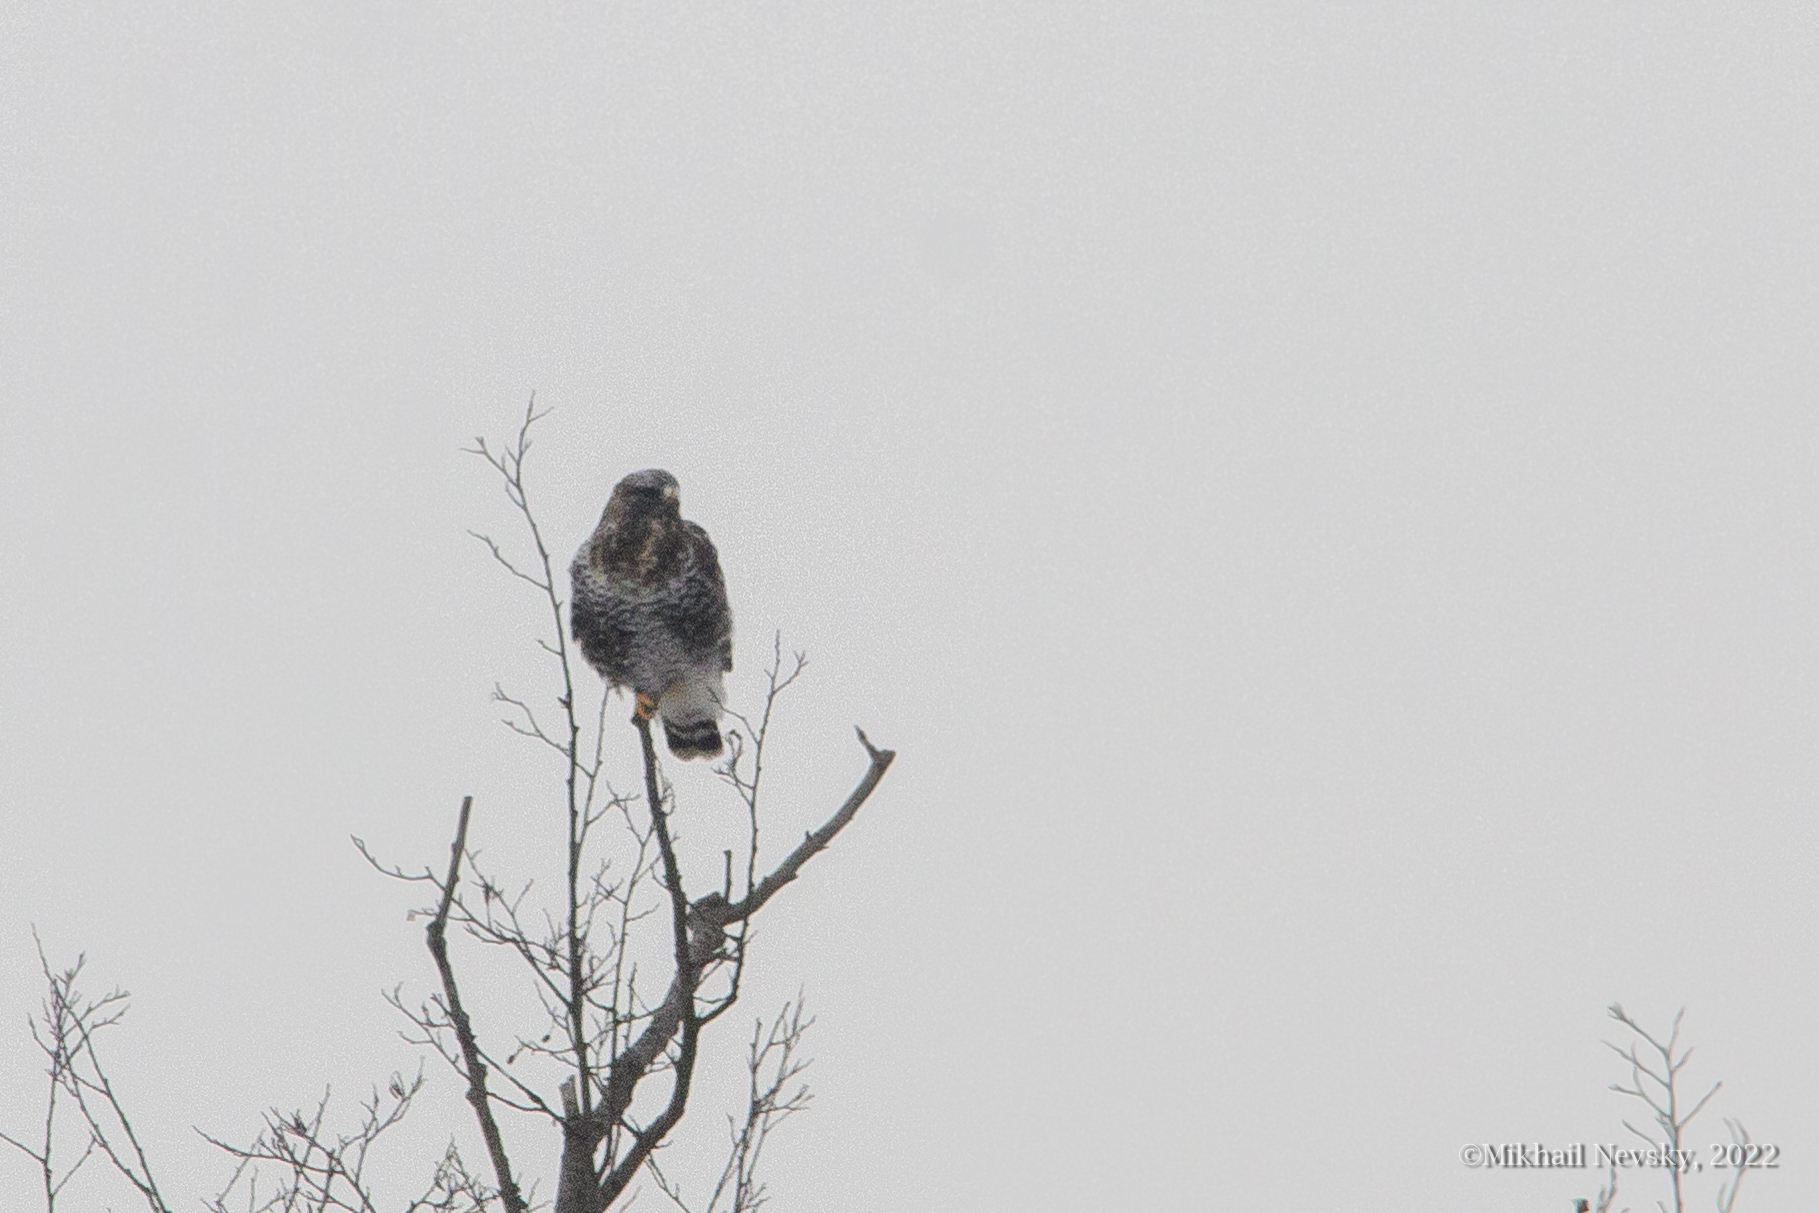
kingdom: Animalia
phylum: Chordata
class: Aves
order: Accipitriformes
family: Accipitridae
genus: Buteo
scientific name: Buteo lagopus
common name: Rough-legged buzzard
